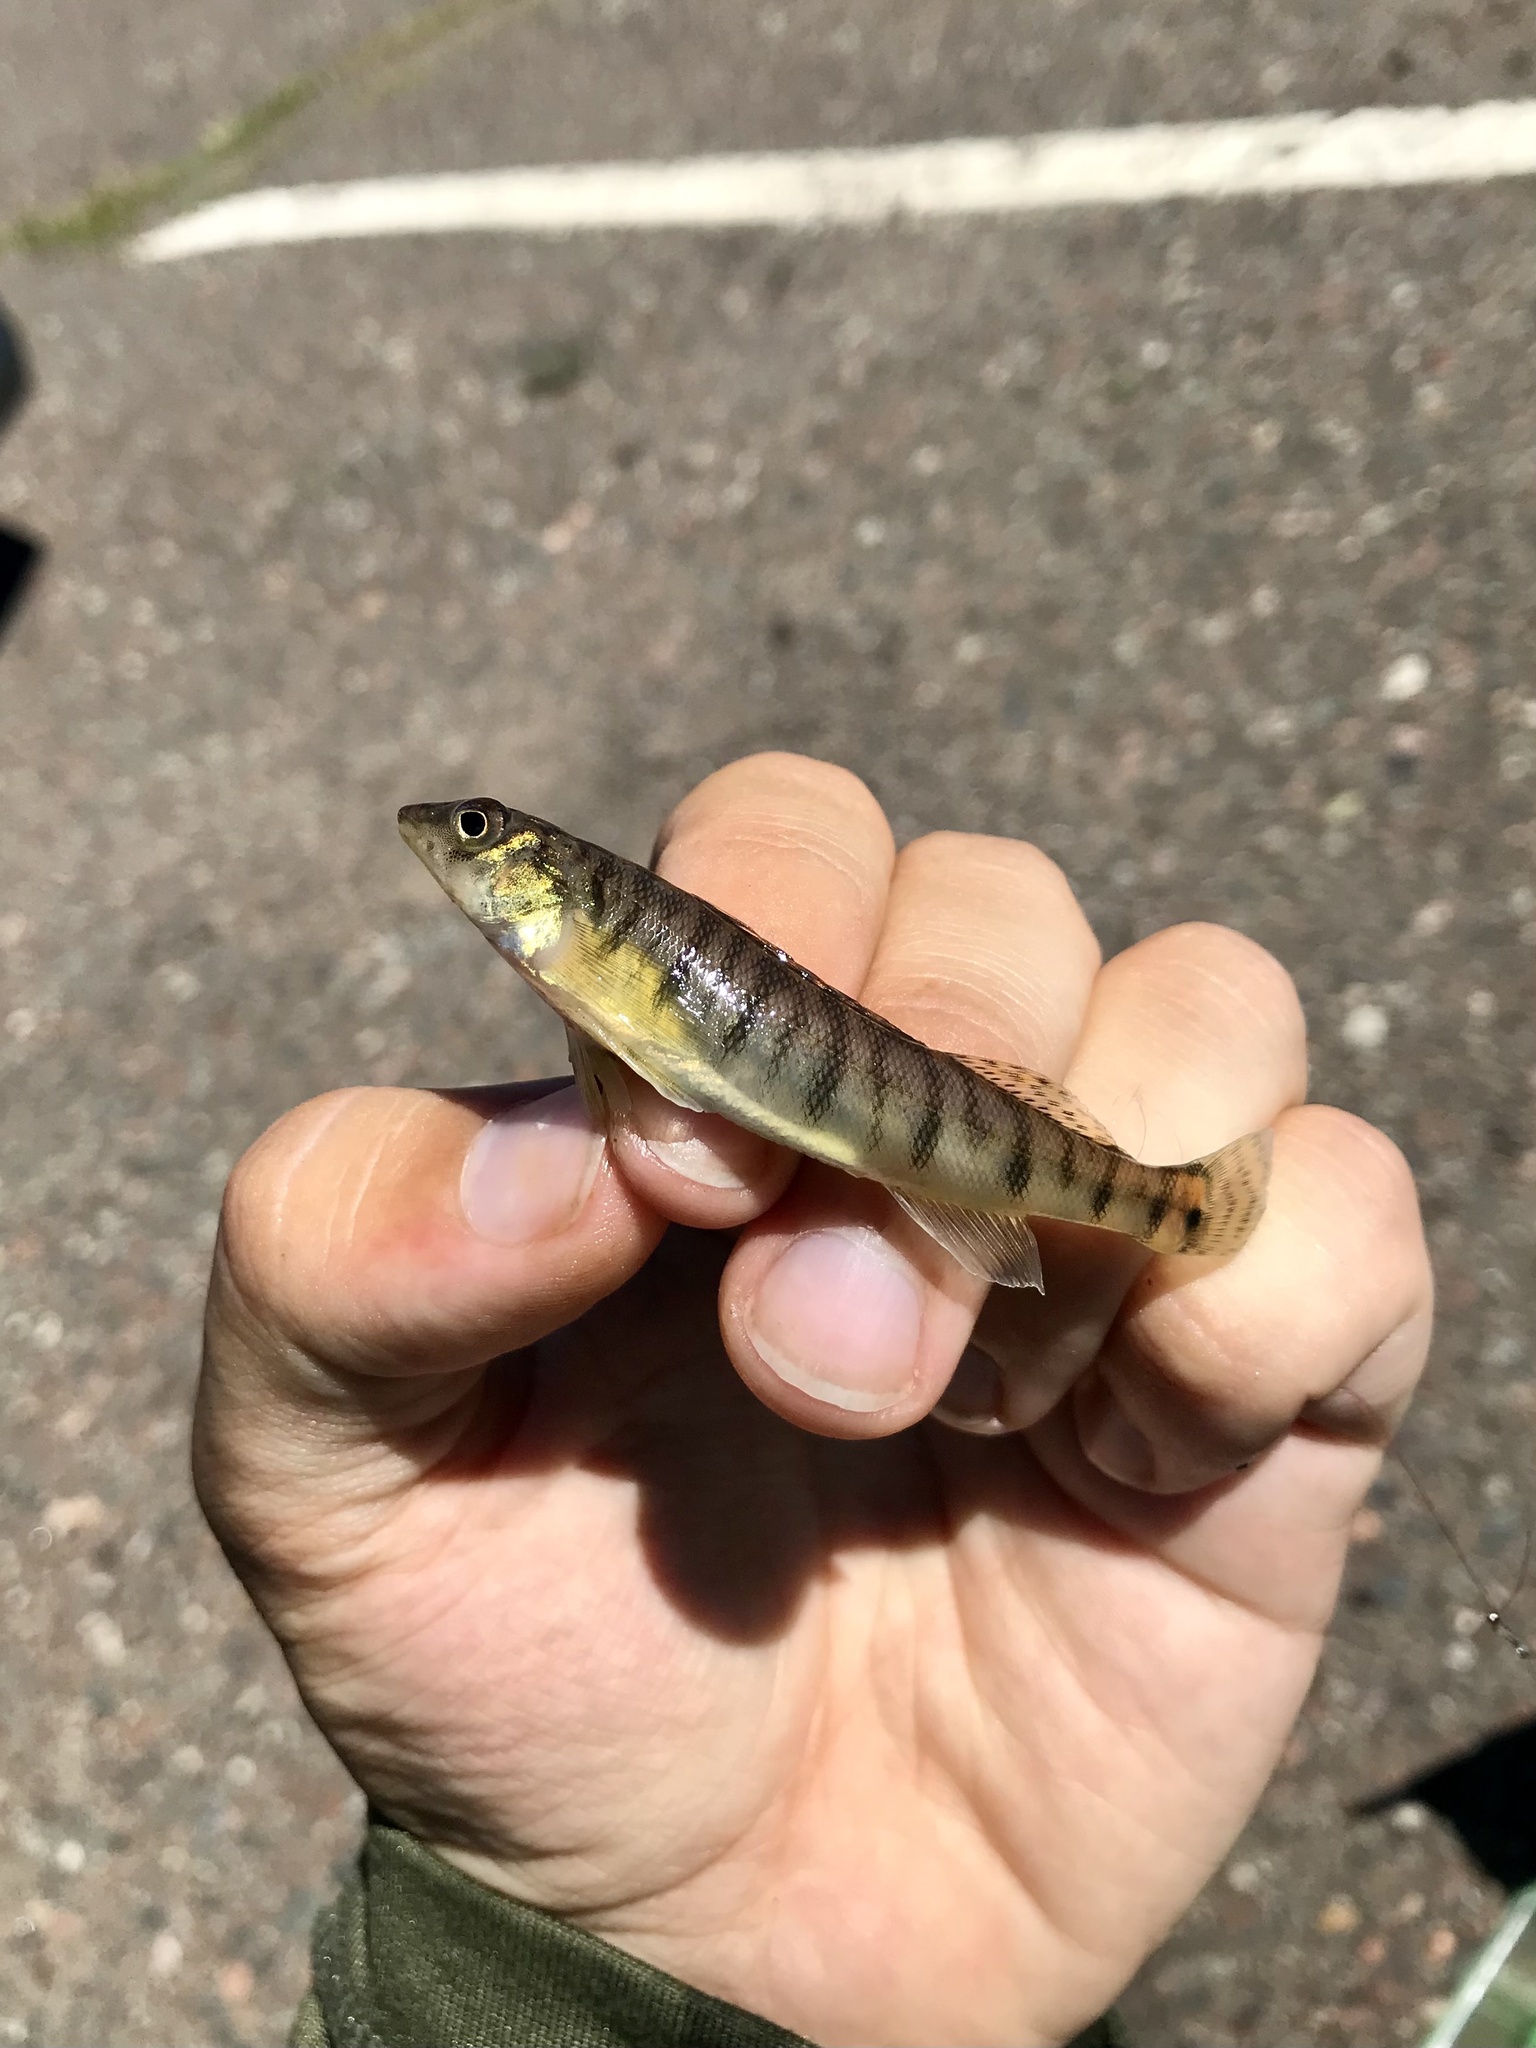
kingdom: Animalia
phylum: Chordata
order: Perciformes
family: Percidae
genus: Percina
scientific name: Percina caprodes
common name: Logperch
